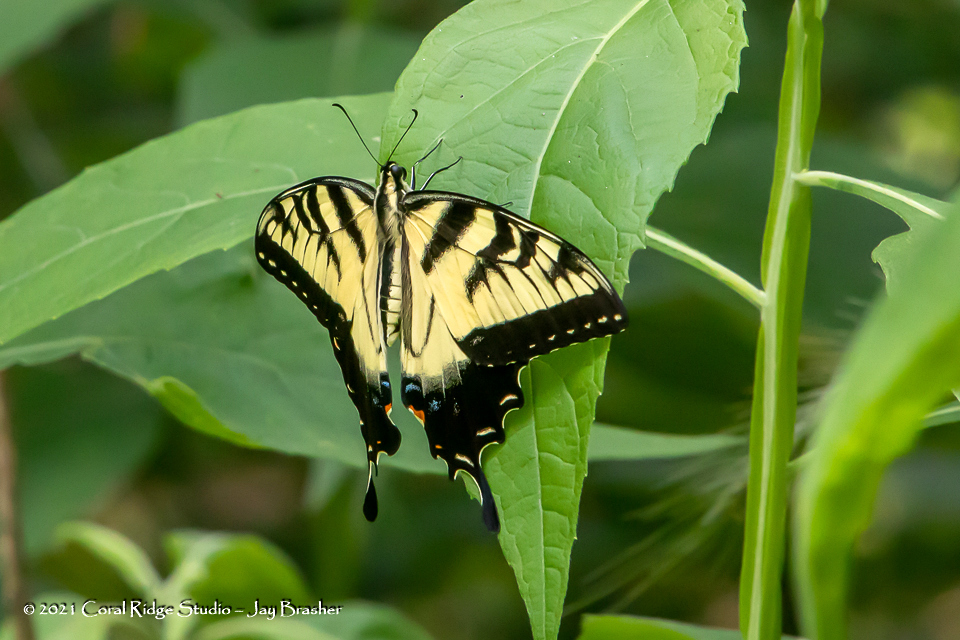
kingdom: Animalia
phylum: Arthropoda
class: Insecta
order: Lepidoptera
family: Papilionidae
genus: Papilio
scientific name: Papilio glaucus
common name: Tiger swallowtail
